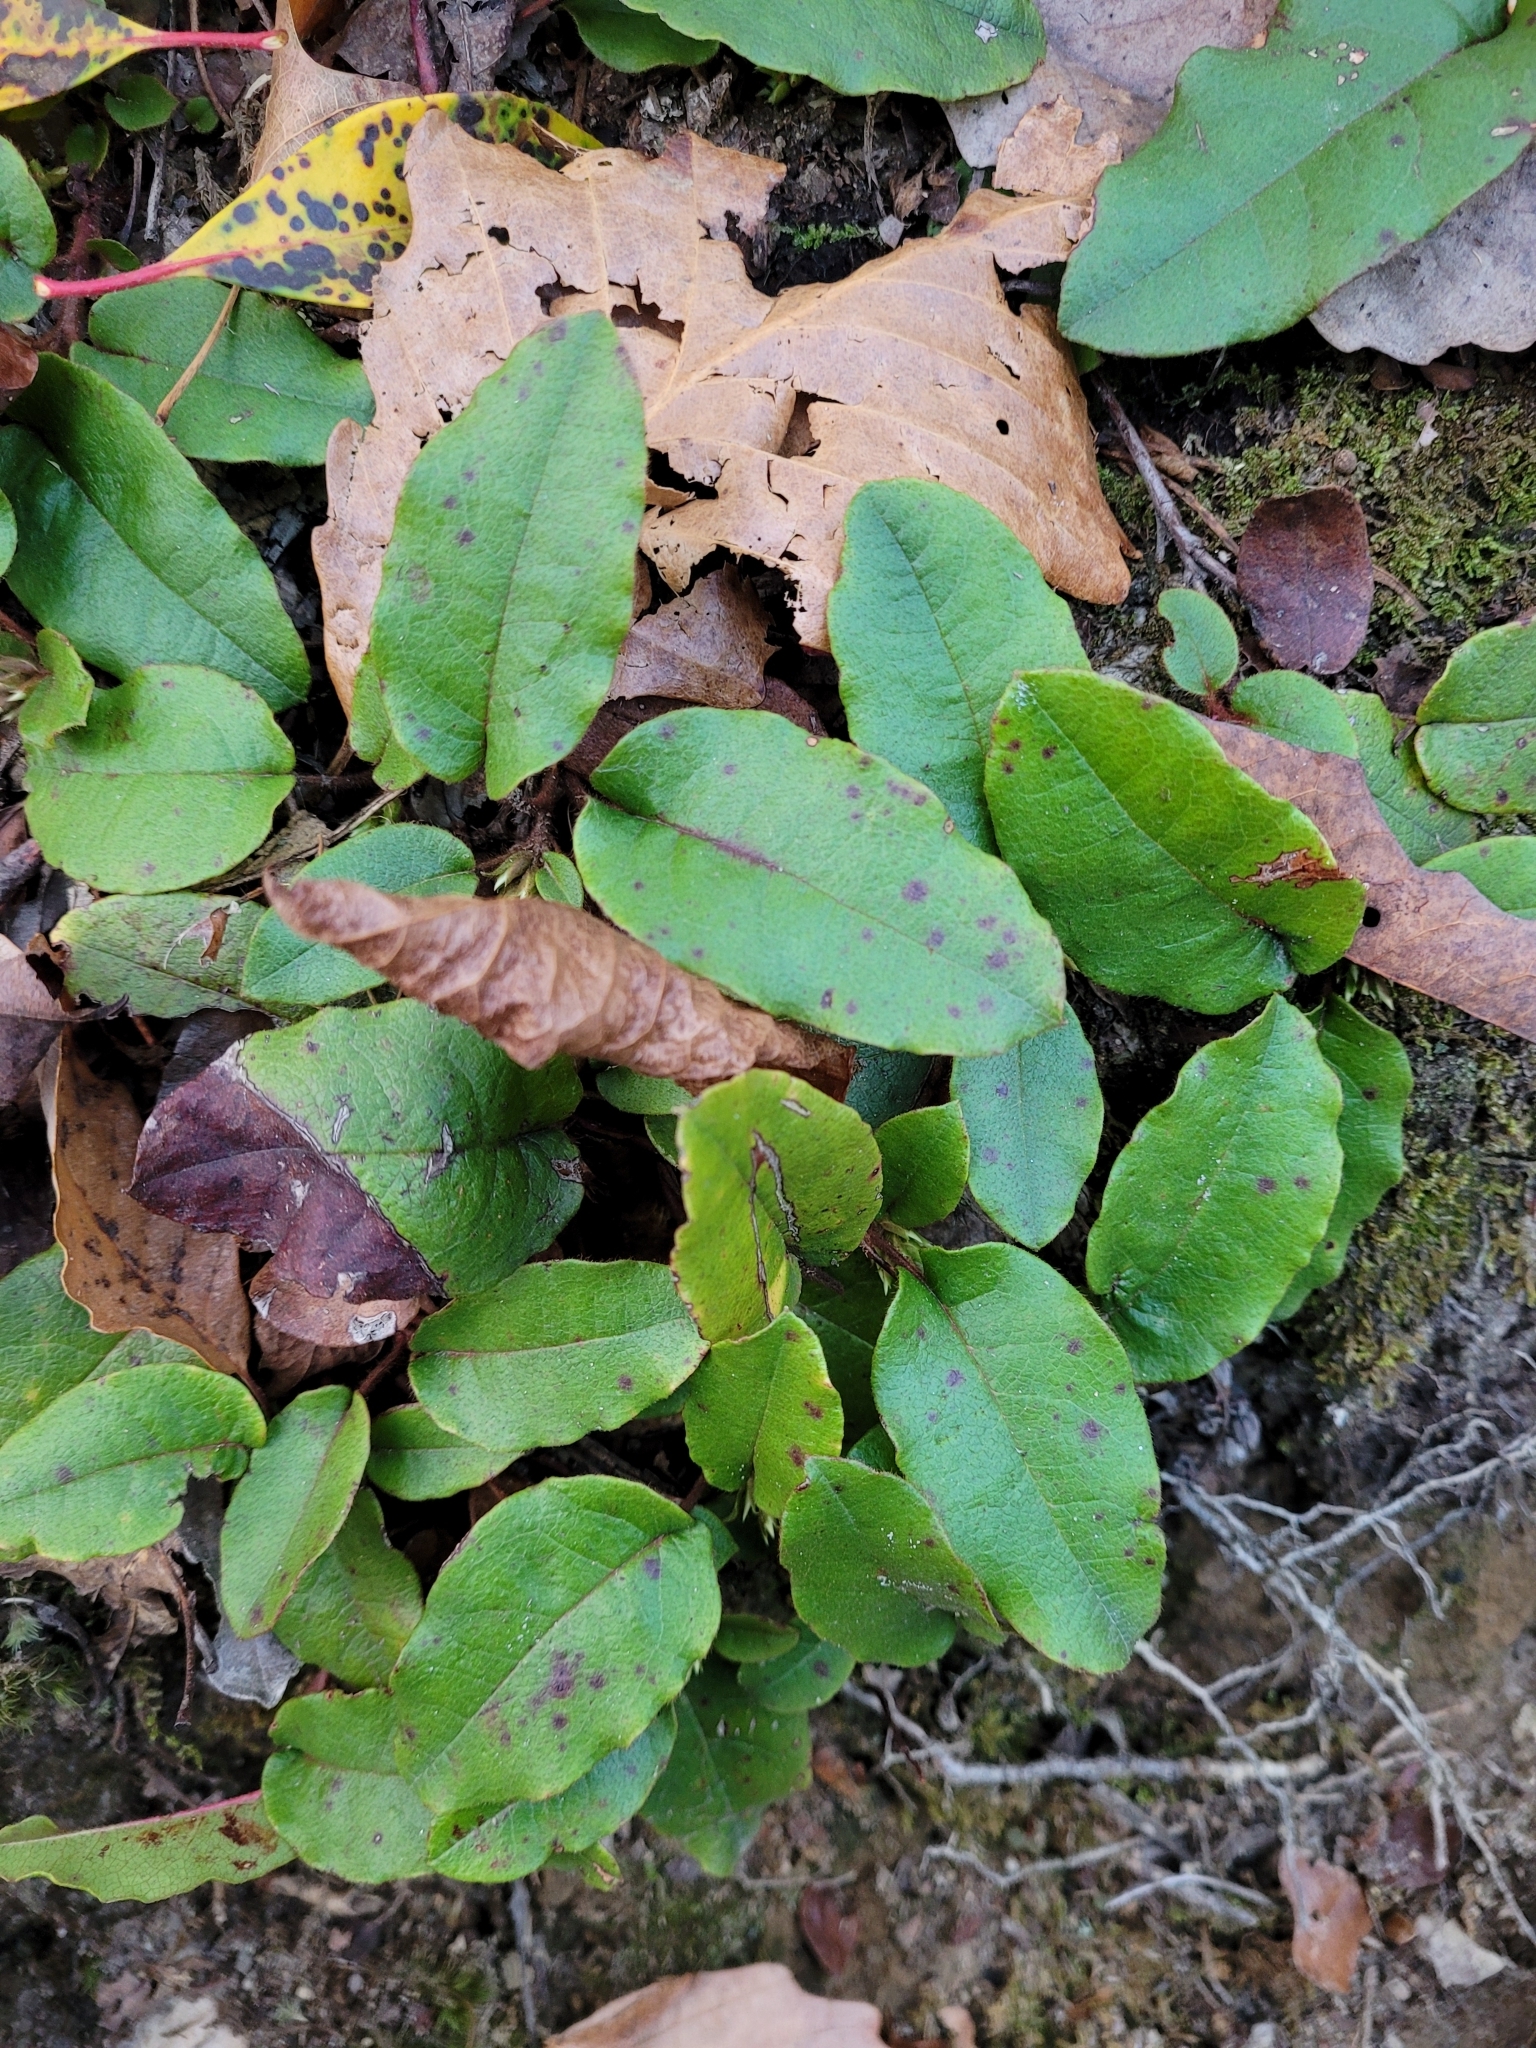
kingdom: Plantae
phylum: Tracheophyta
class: Magnoliopsida
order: Ericales
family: Ericaceae
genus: Epigaea
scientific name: Epigaea repens
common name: Gravelroot
